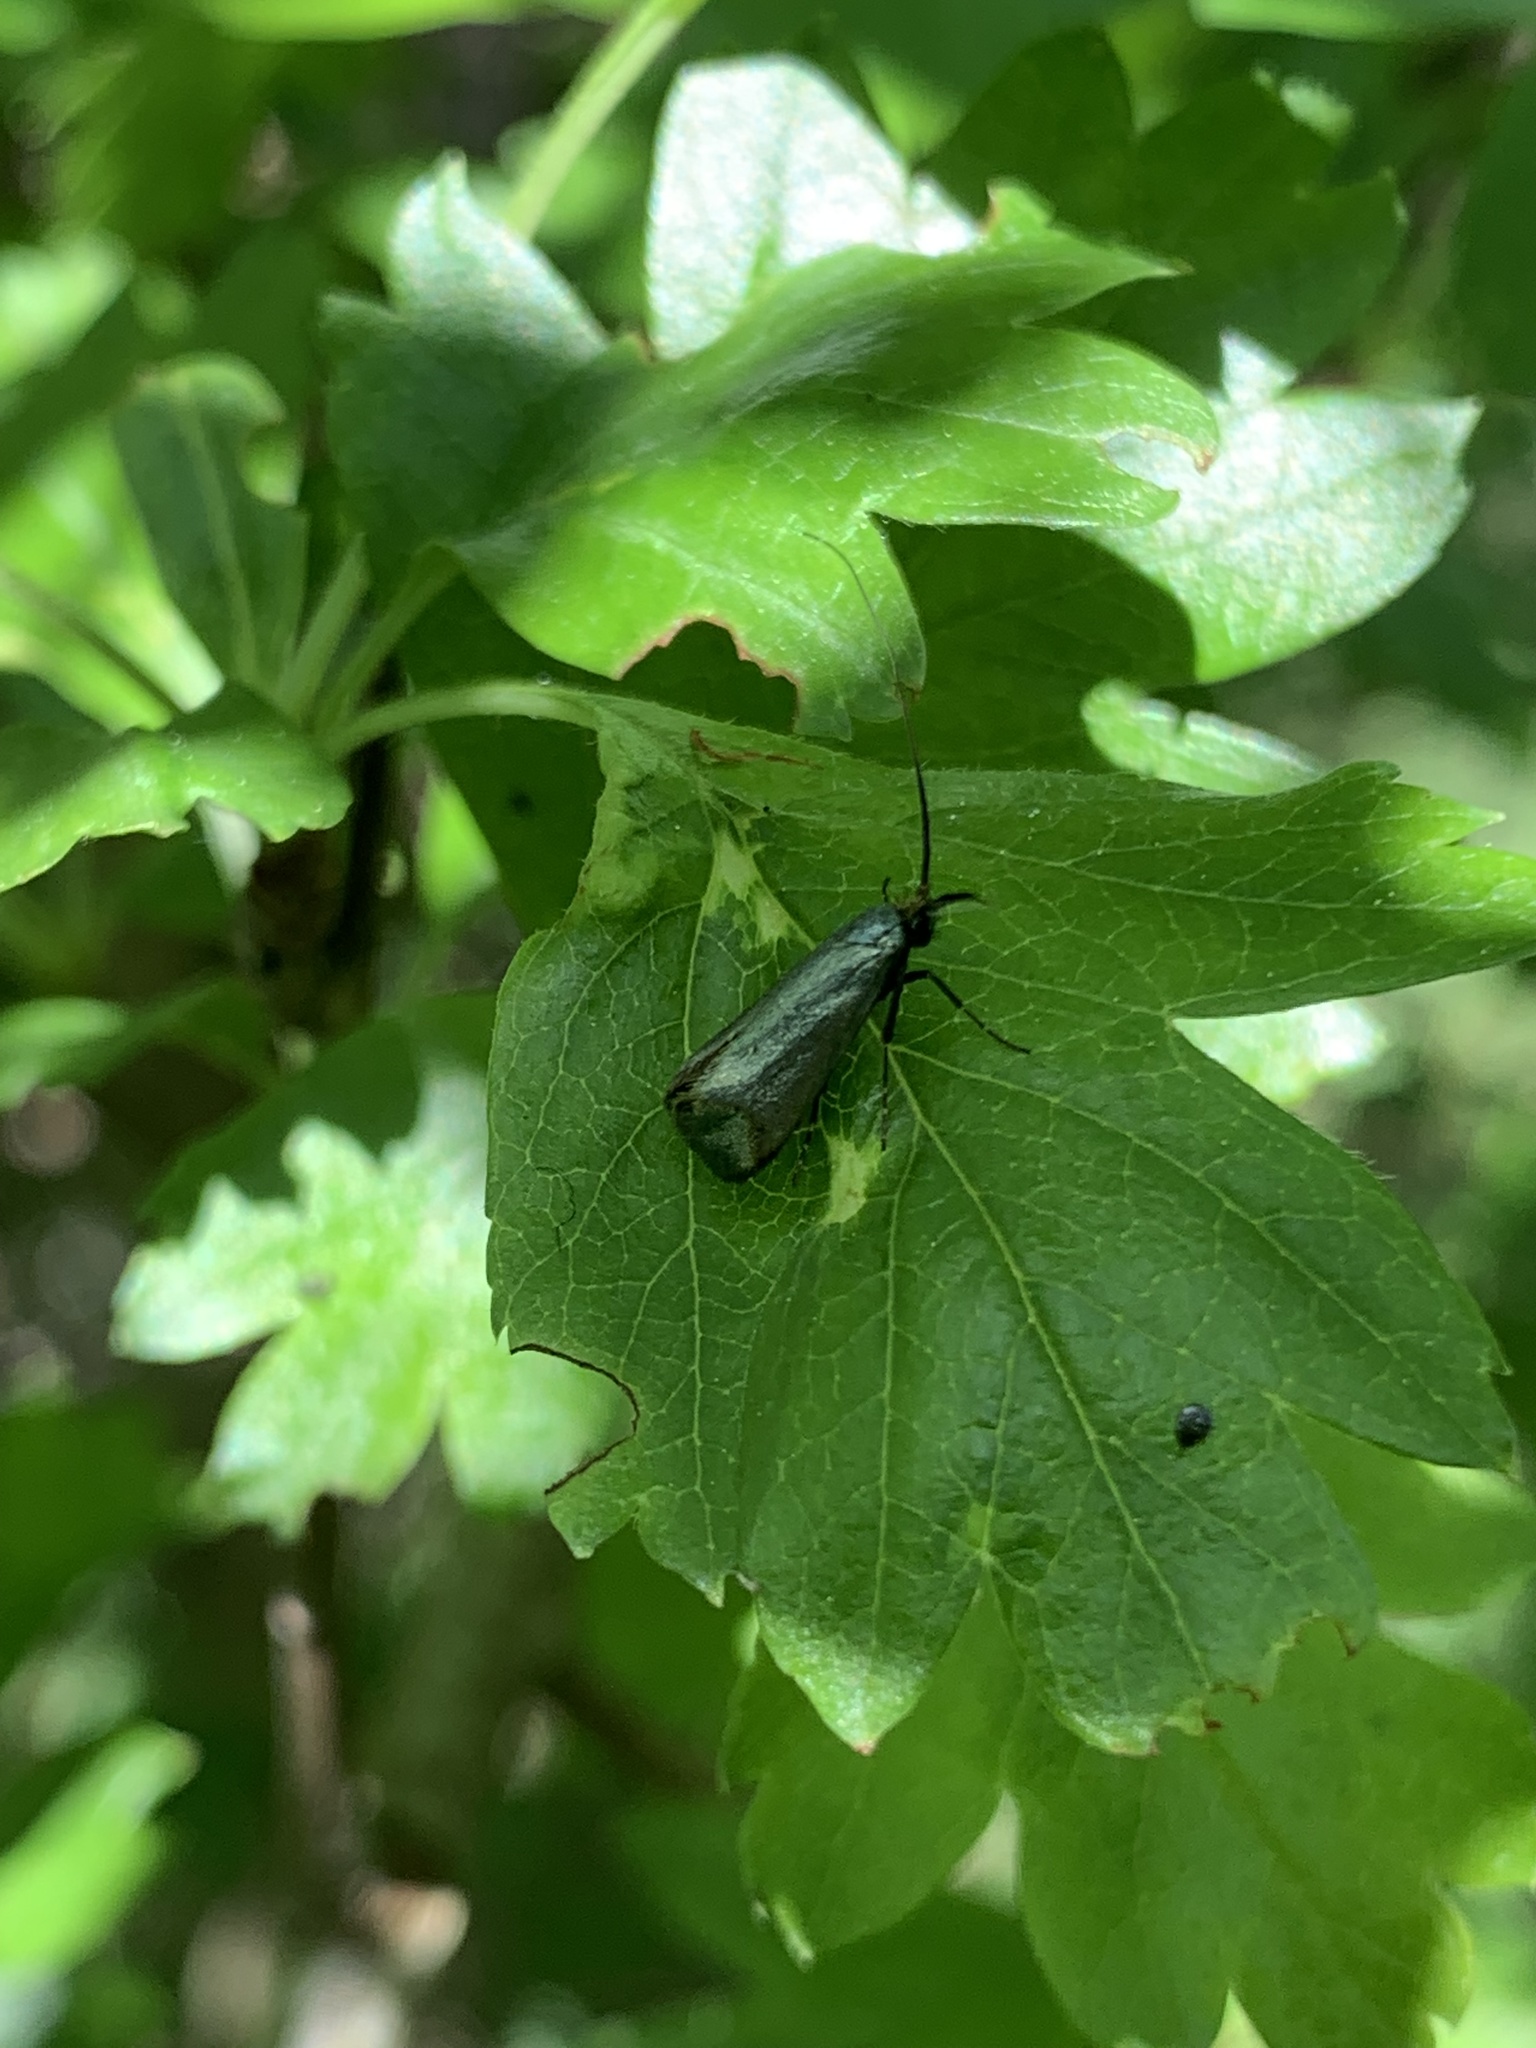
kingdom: Animalia
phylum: Arthropoda
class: Insecta
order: Lepidoptera
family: Adelidae
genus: Adela
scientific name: Adela viridella
